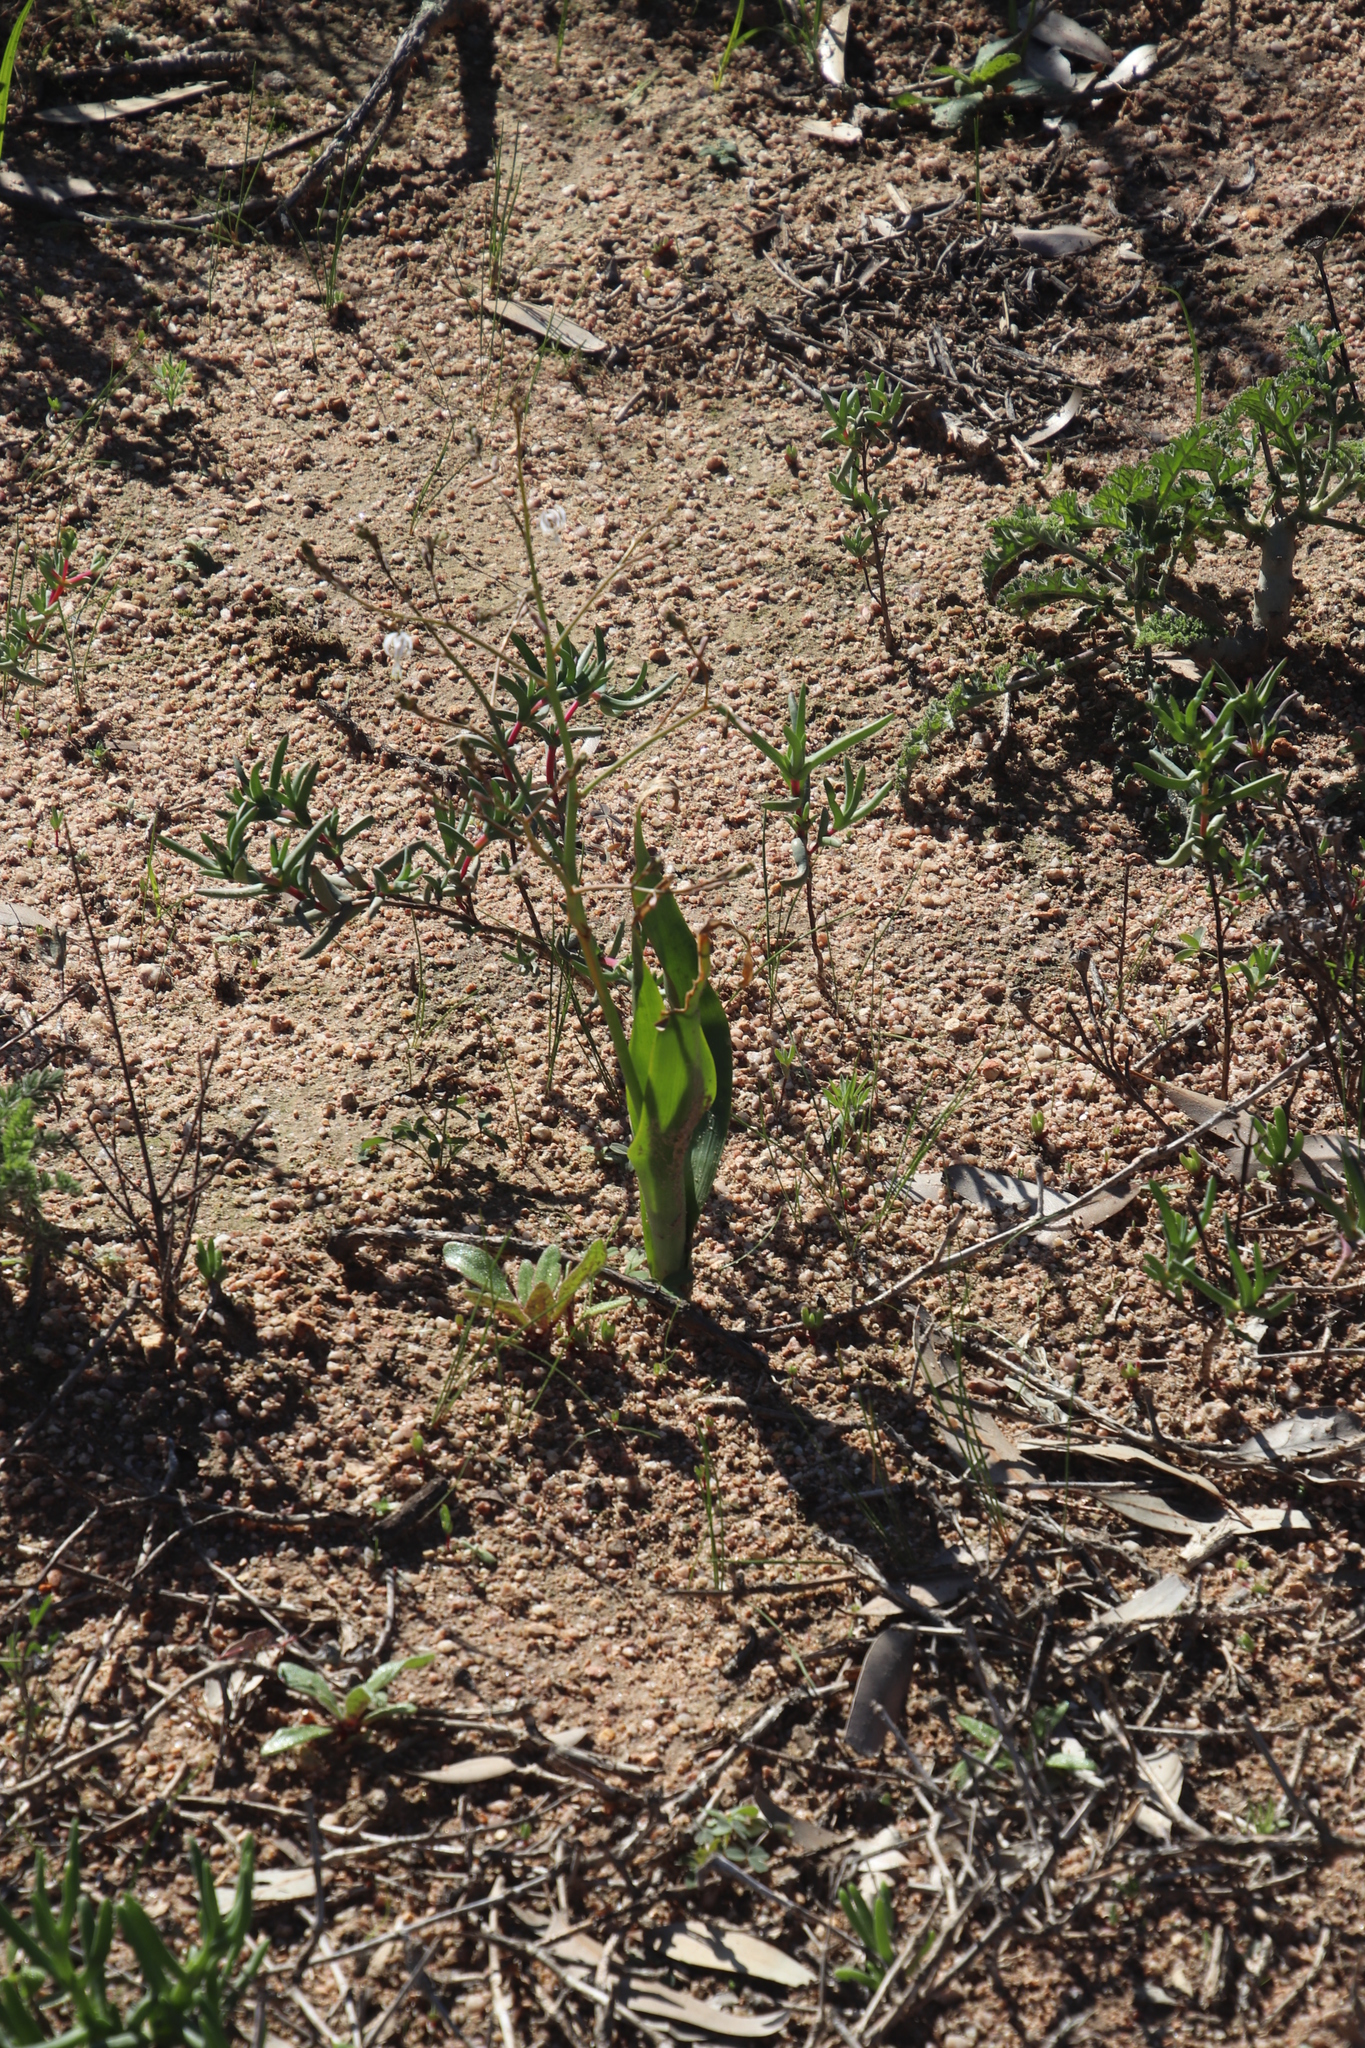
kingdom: Plantae
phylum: Tracheophyta
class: Liliopsida
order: Asparagales
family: Asphodelaceae
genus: Trachyandra
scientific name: Trachyandra muricata
